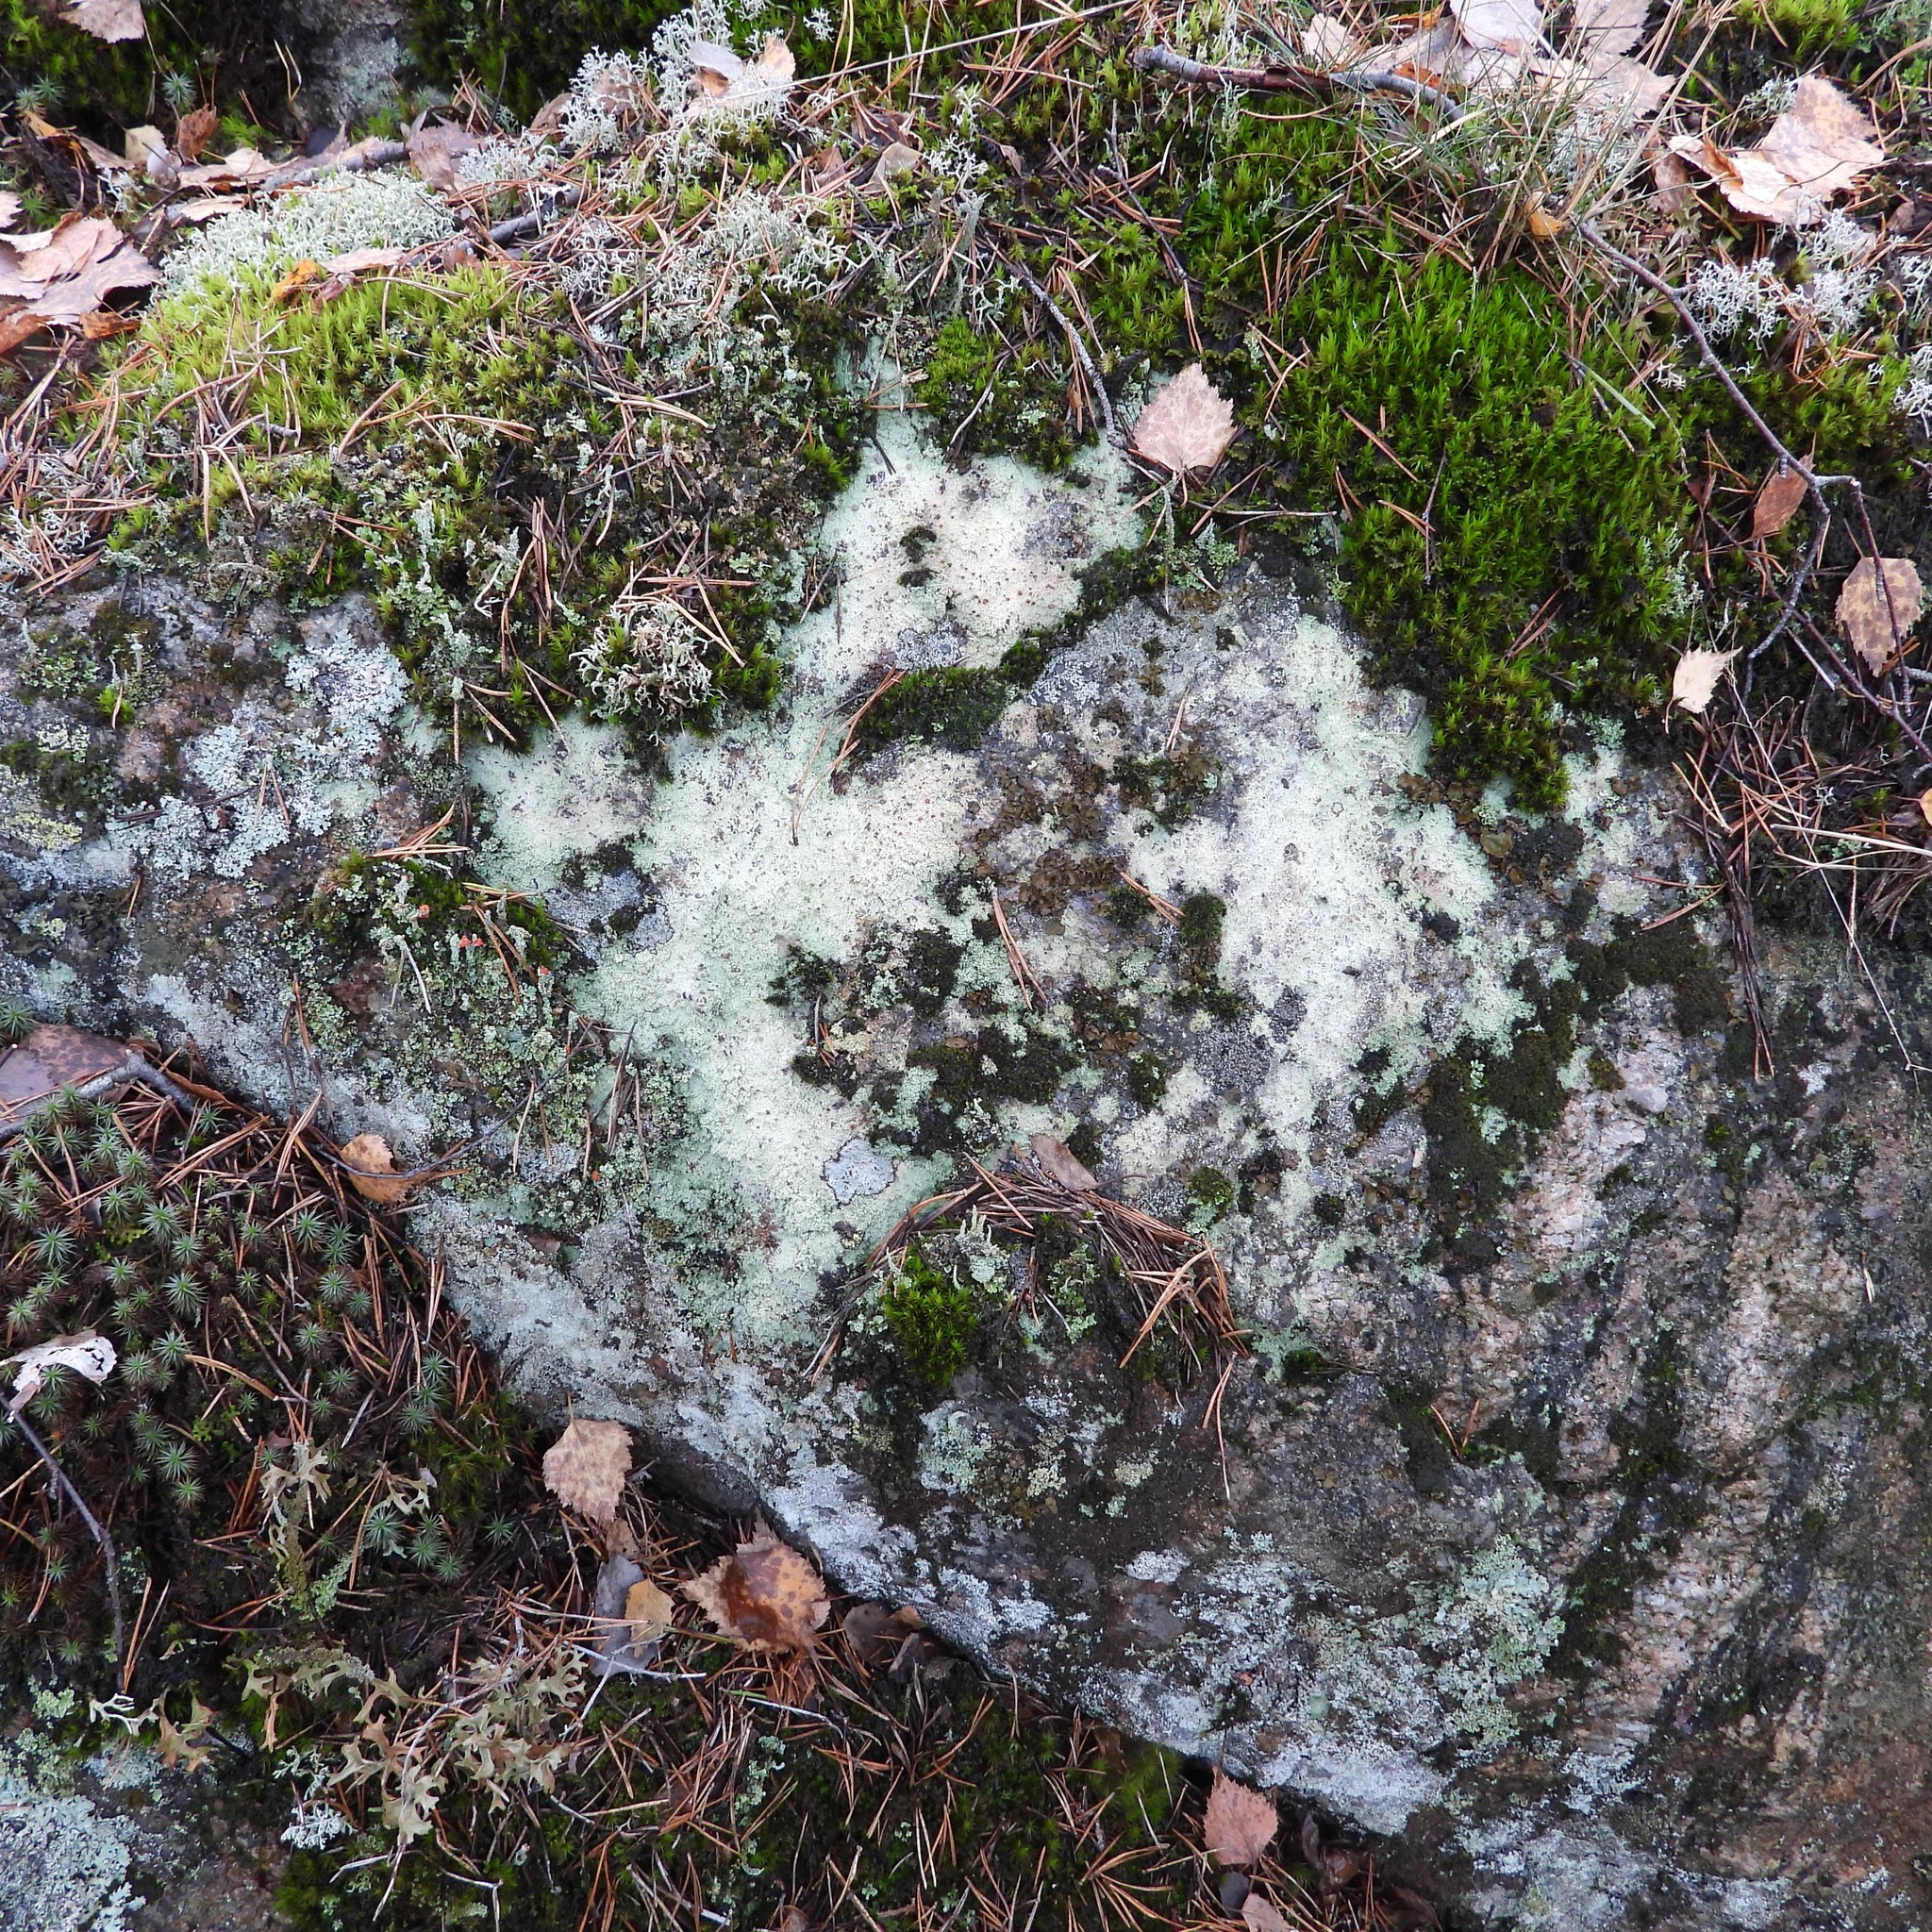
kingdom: Fungi
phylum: Ascomycota
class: Lecanoromycetes
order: Baeomycetales
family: Baeomycetaceae
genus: Baeomyces
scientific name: Baeomyces carneus
